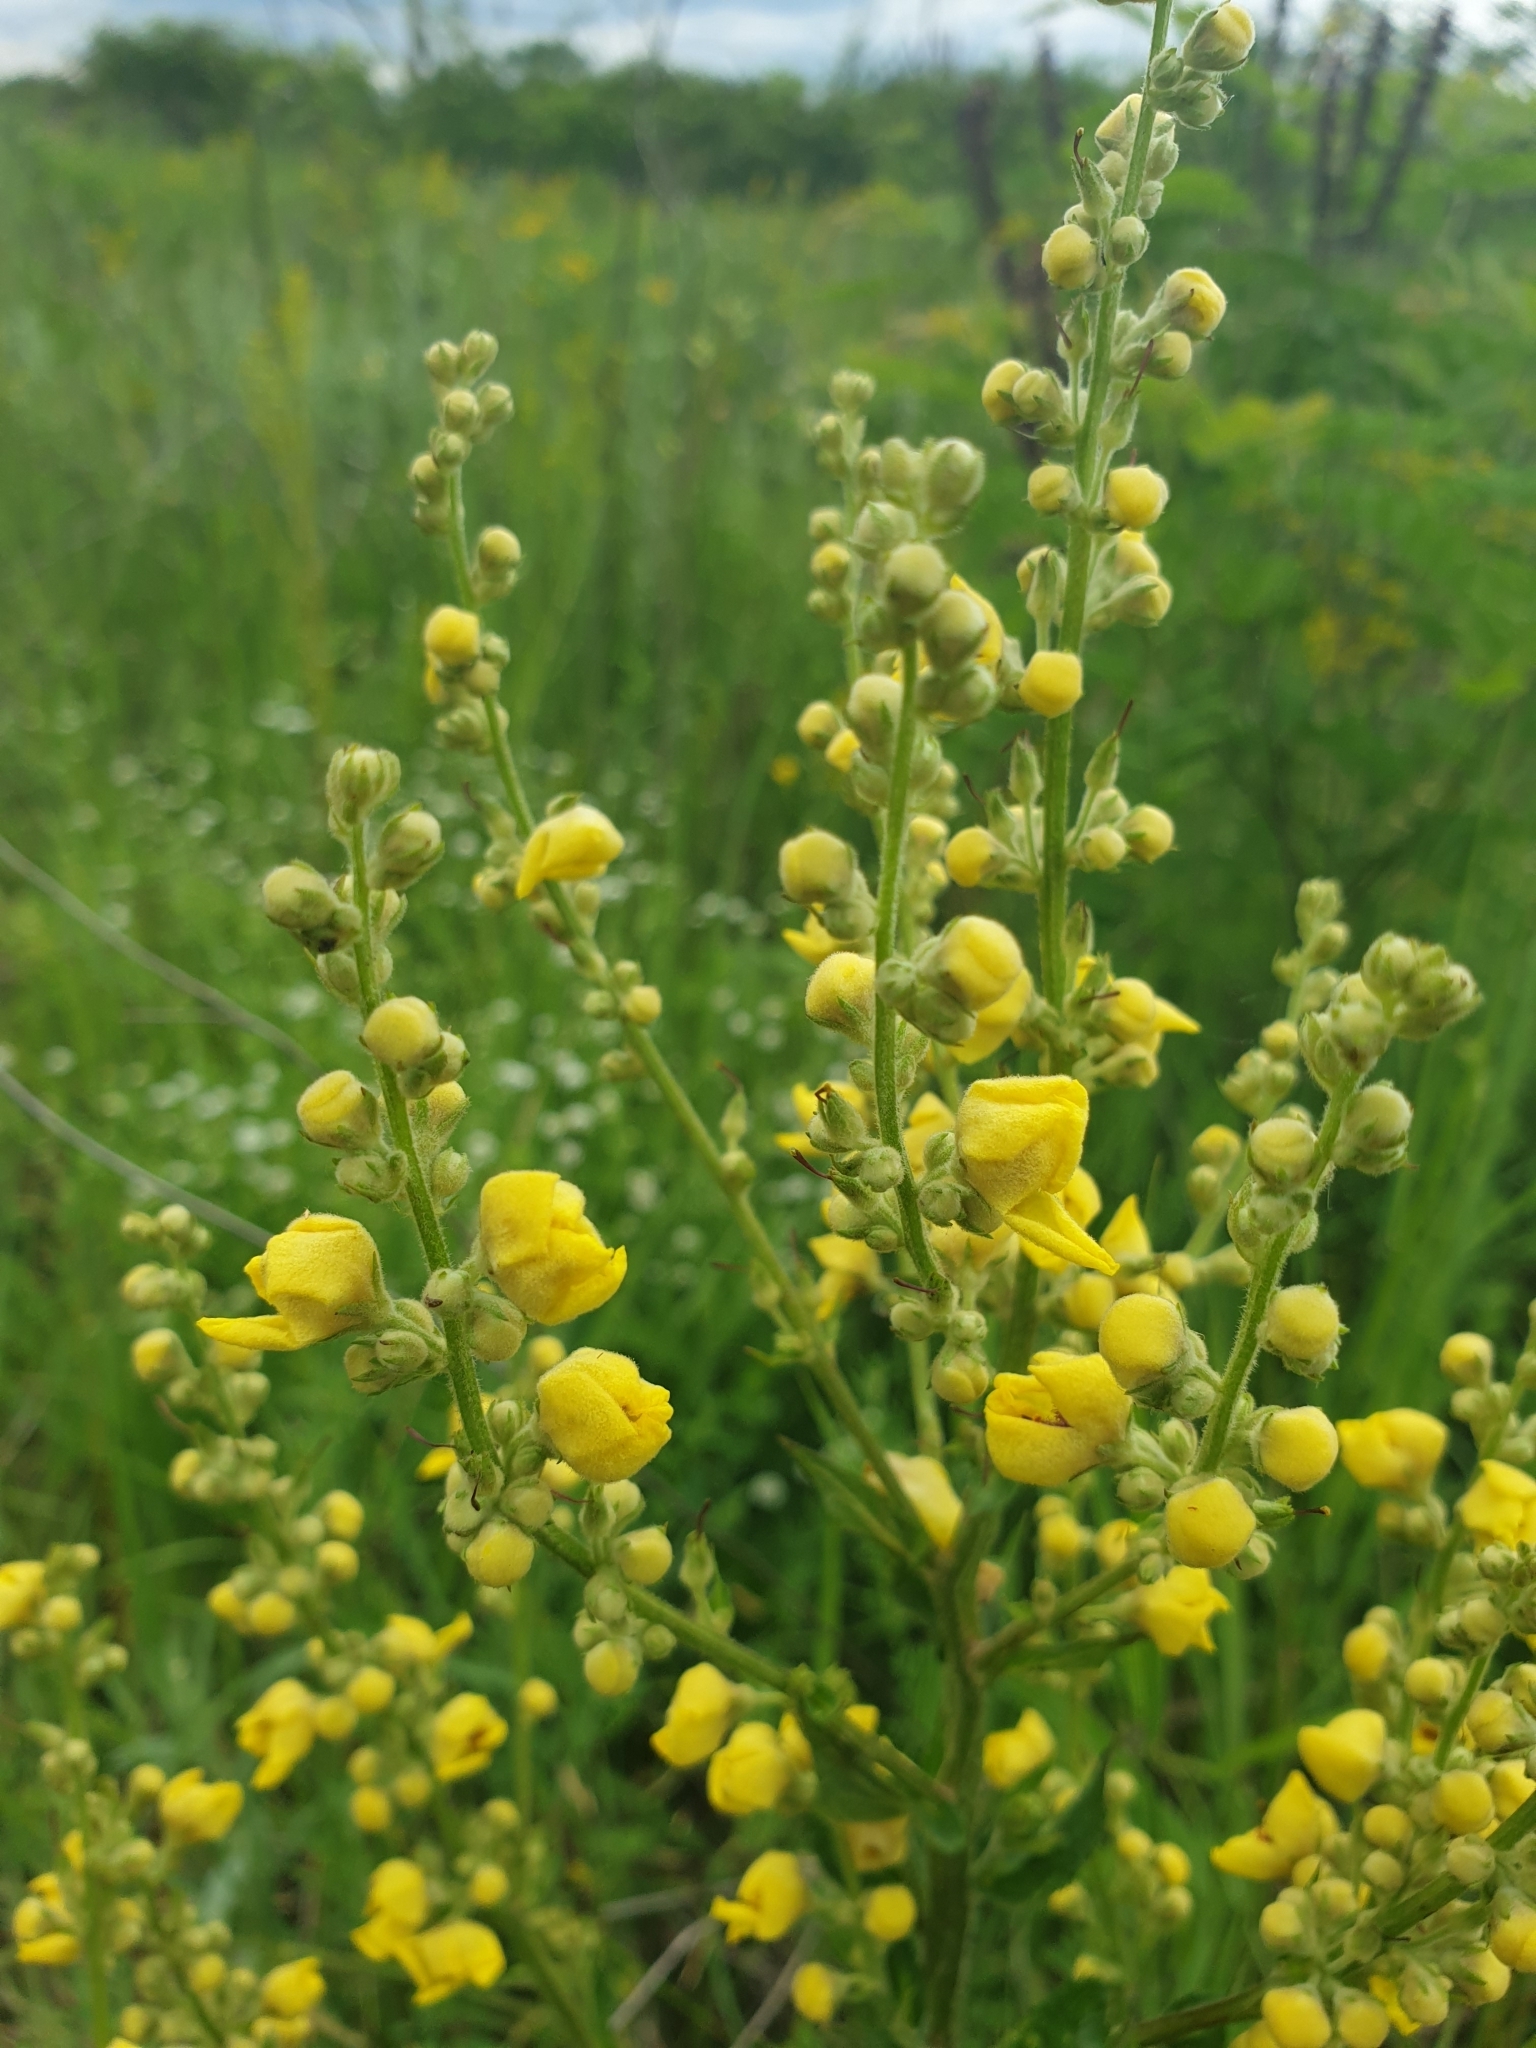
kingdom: Plantae
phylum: Tracheophyta
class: Magnoliopsida
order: Lamiales
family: Scrophulariaceae
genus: Verbascum
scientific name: Verbascum chaixii
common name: Nettle-leaved mullein
